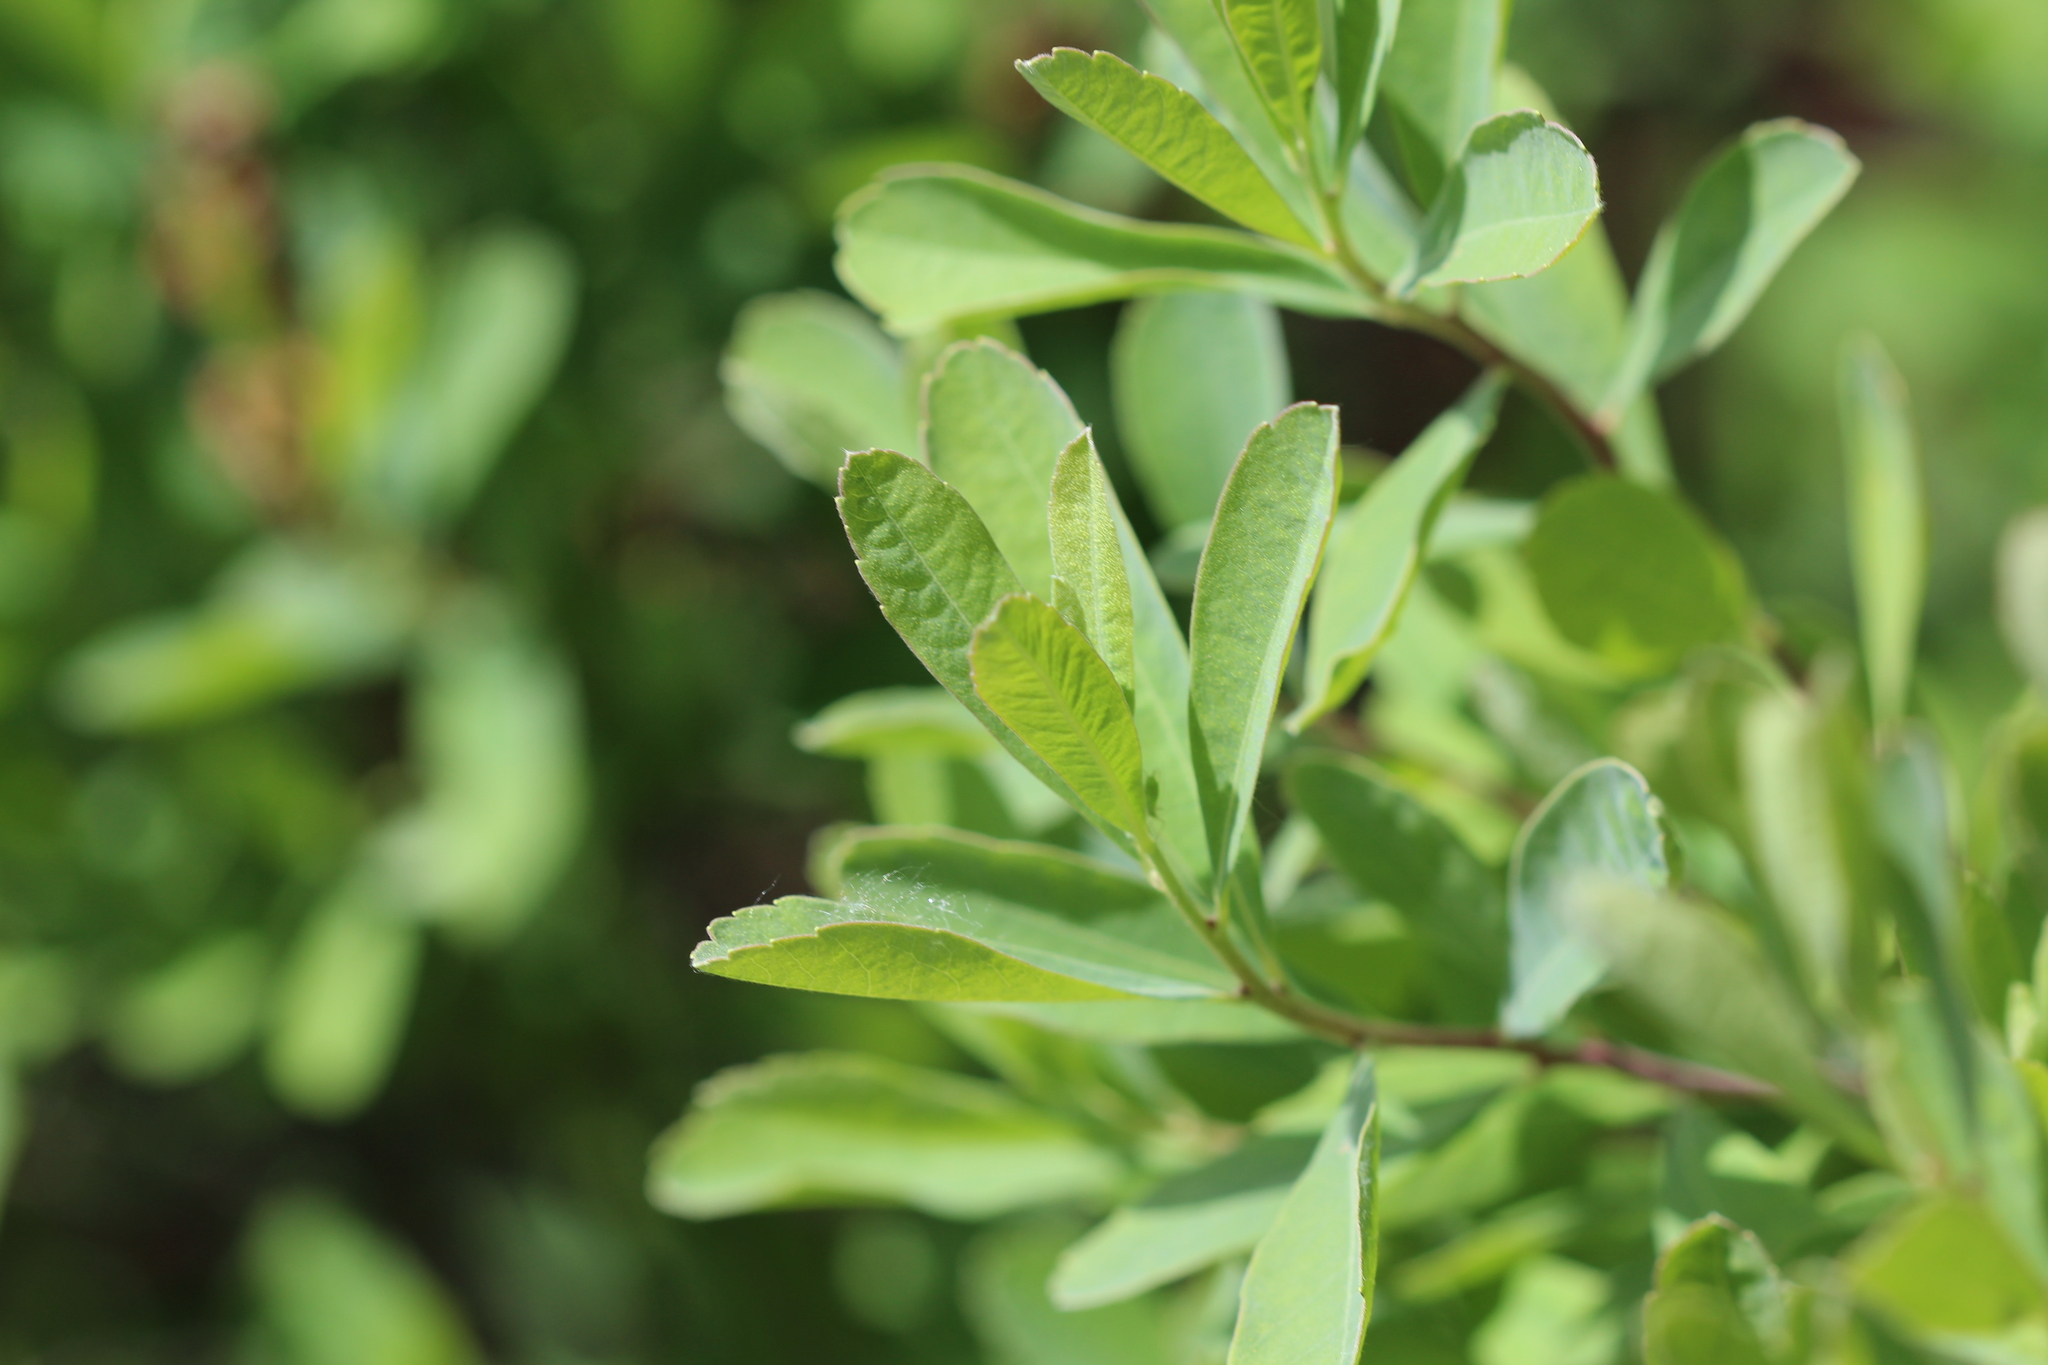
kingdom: Plantae
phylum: Tracheophyta
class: Magnoliopsida
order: Fagales
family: Myricaceae
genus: Myrica
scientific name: Myrica gale
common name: Sweet gale
